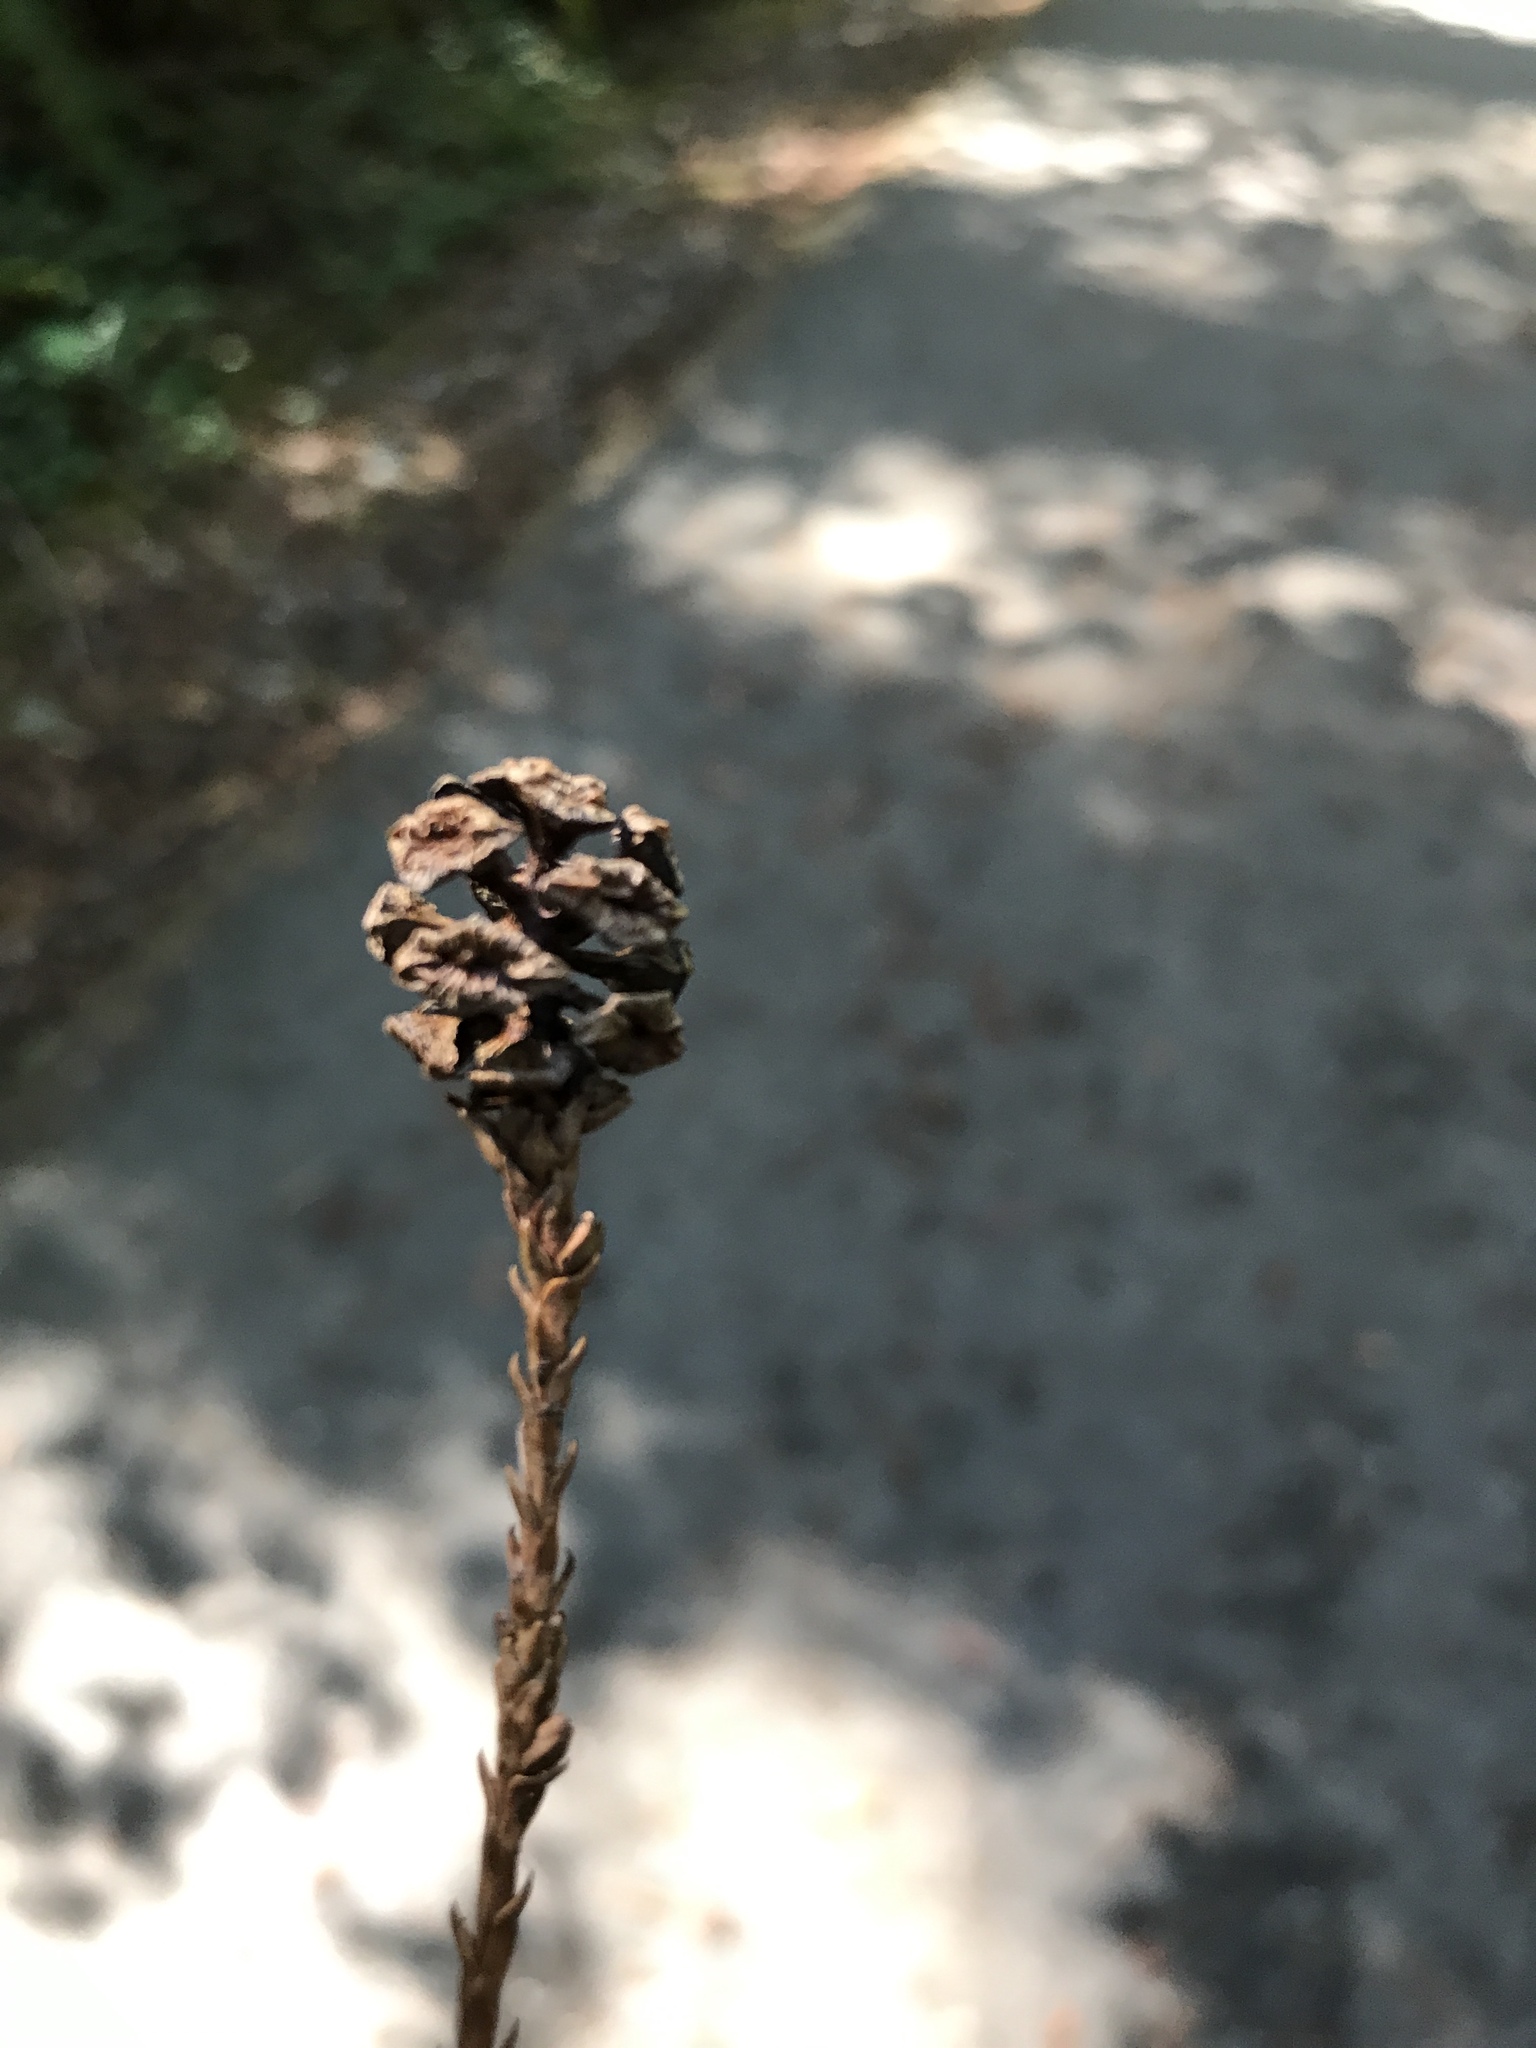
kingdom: Plantae
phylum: Tracheophyta
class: Pinopsida
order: Pinales
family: Cupressaceae
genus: Sequoia
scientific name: Sequoia sempervirens
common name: Coast redwood
